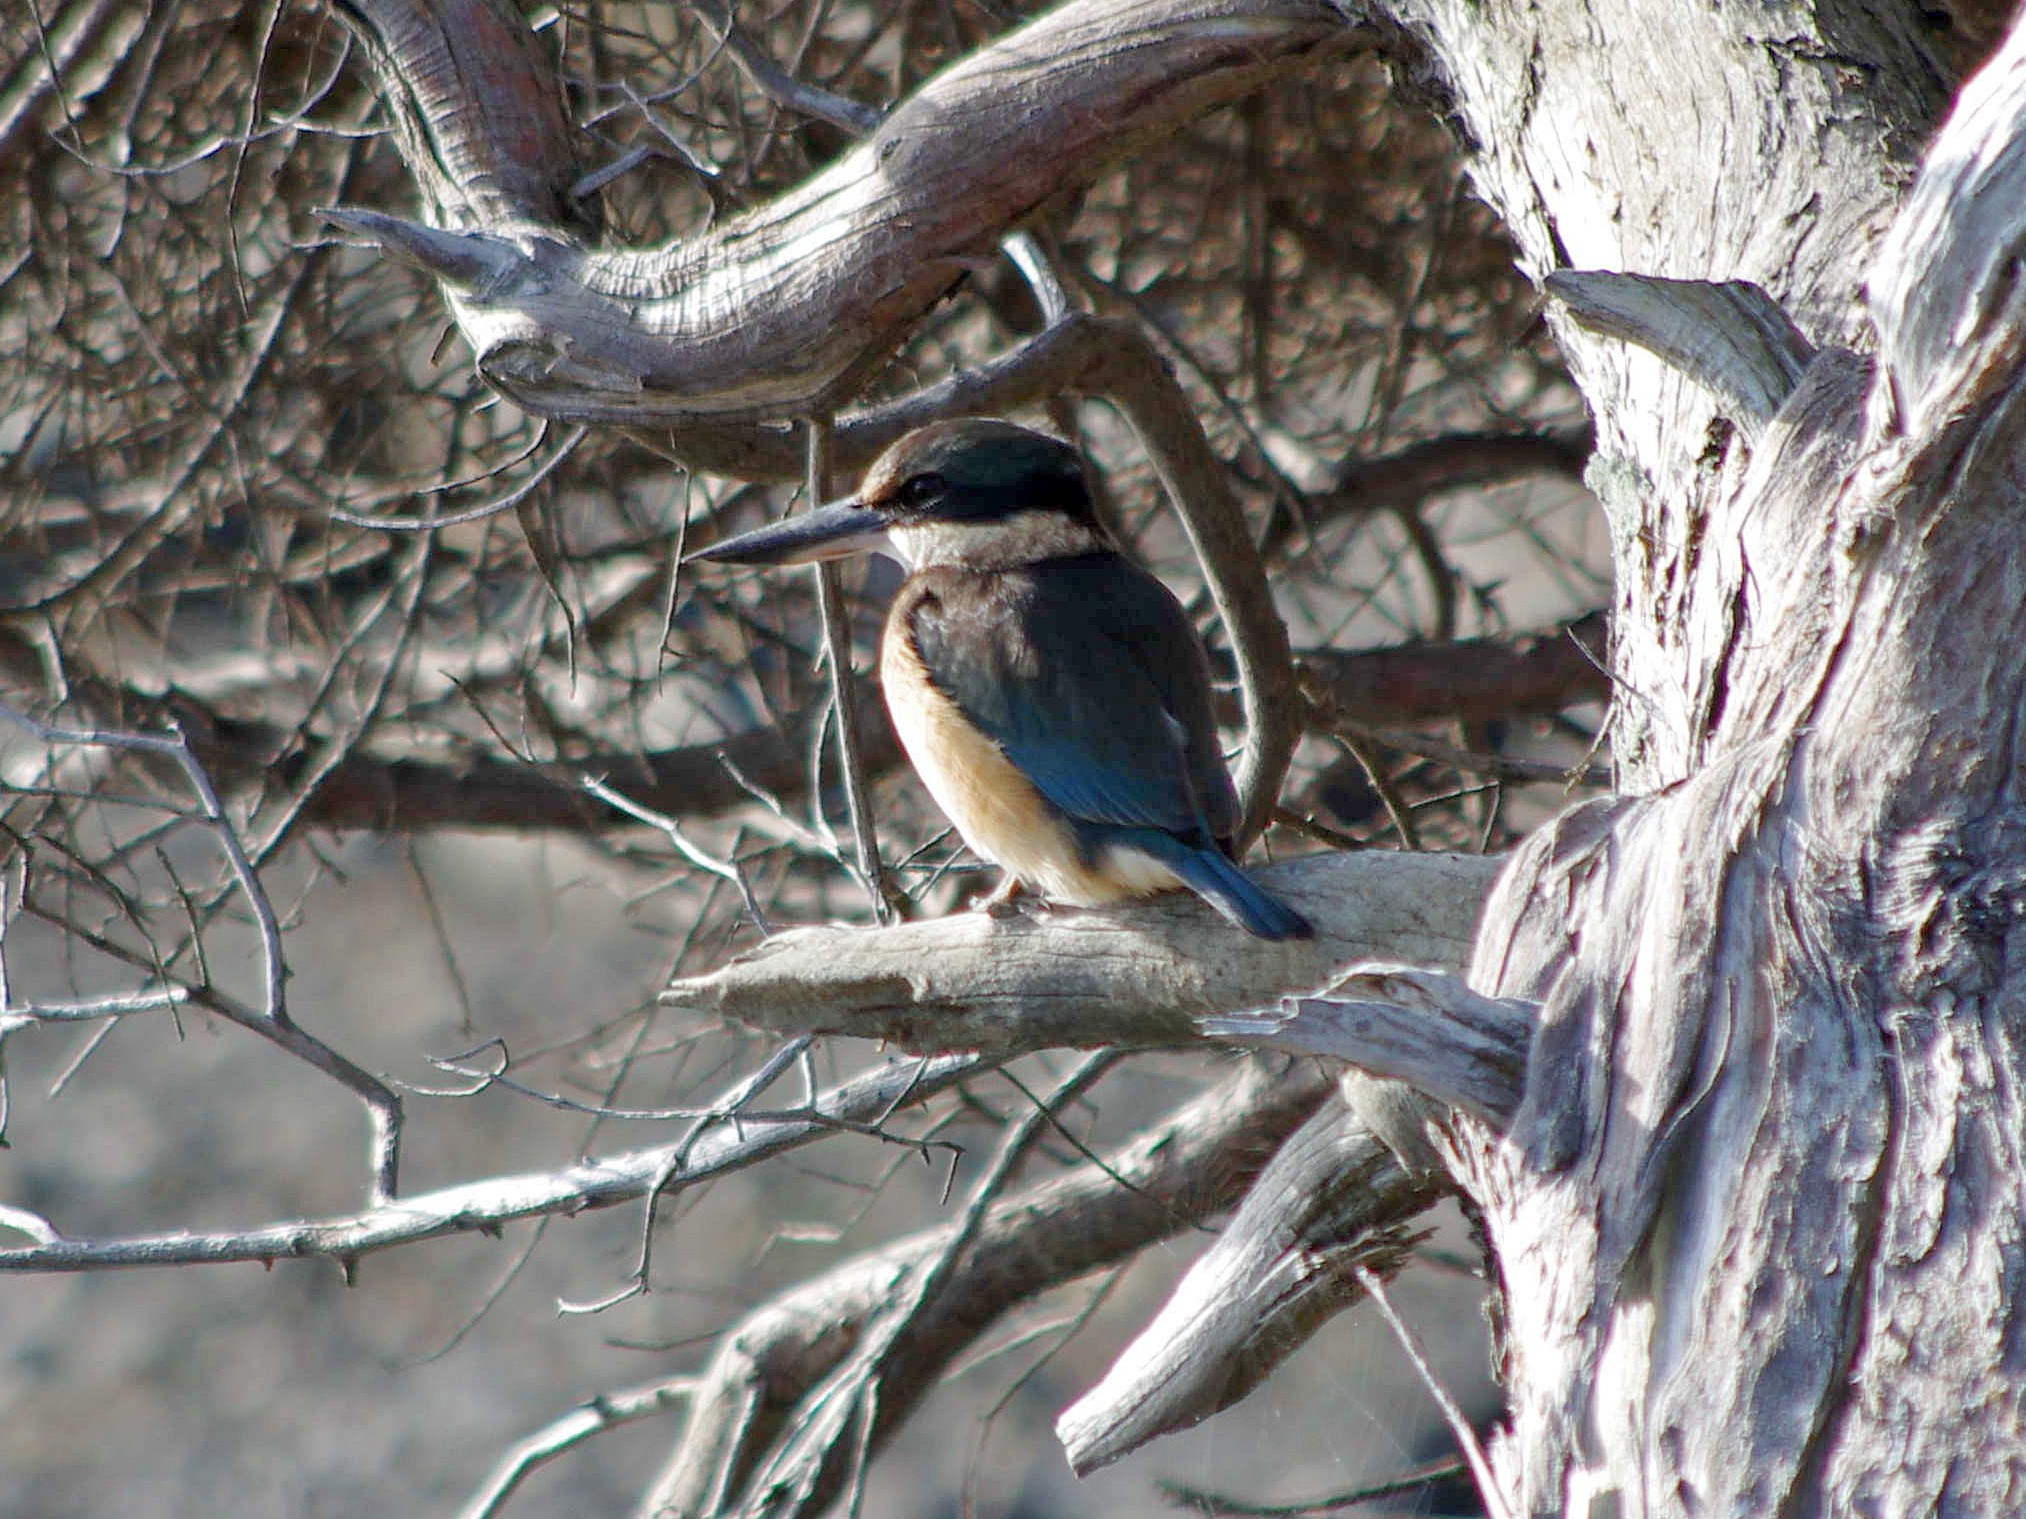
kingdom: Animalia
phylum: Chordata
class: Aves
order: Coraciiformes
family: Alcedinidae
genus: Todiramphus
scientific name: Todiramphus sanctus
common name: Sacred kingfisher
